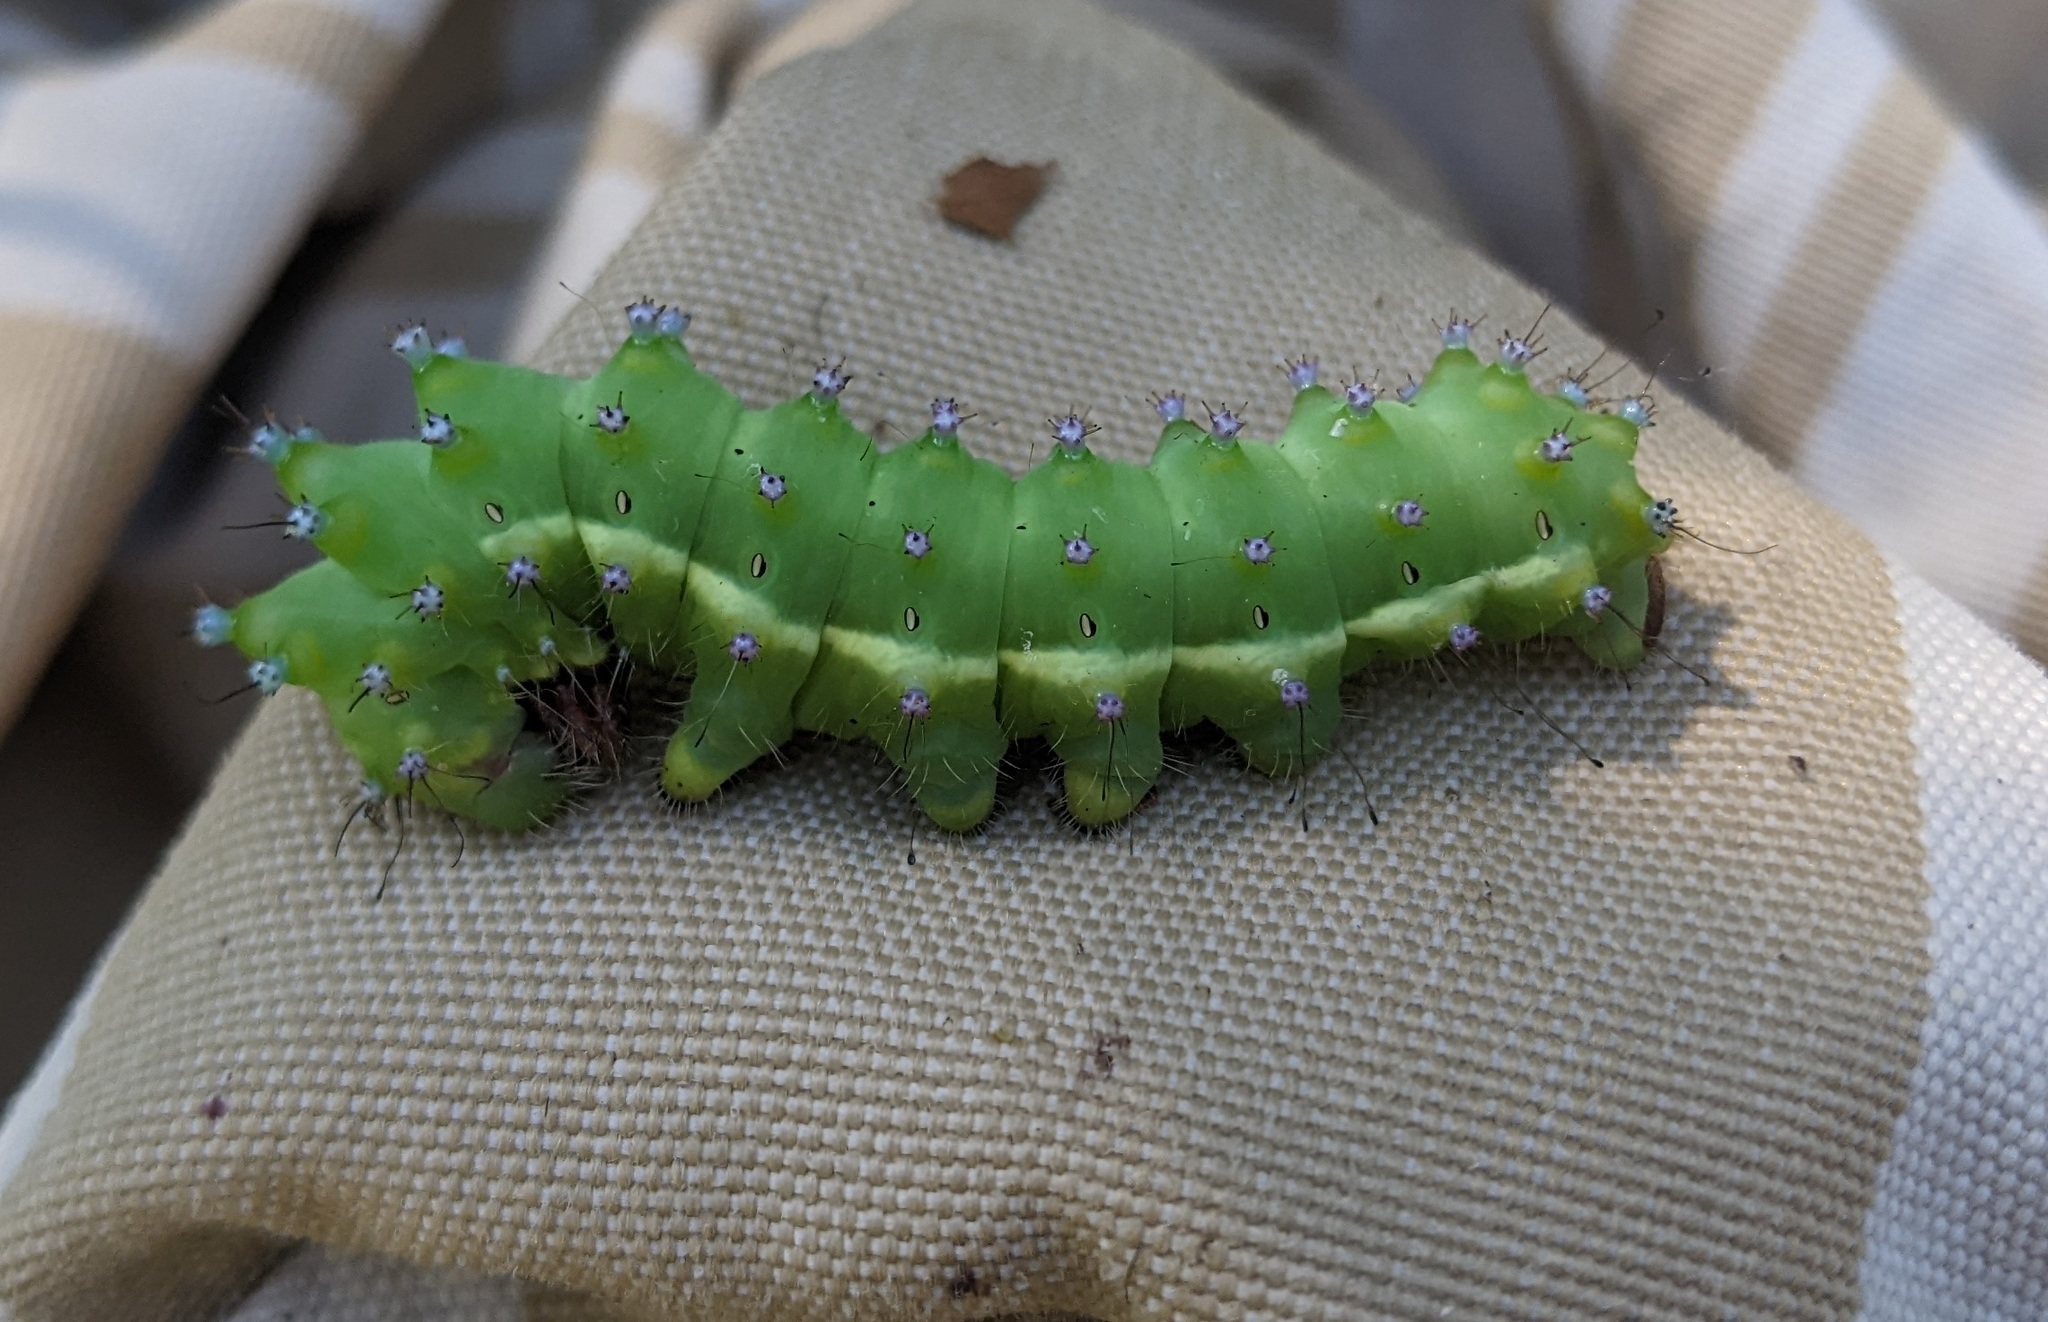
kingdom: Animalia
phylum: Arthropoda
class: Insecta
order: Lepidoptera
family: Saturniidae
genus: Saturnia
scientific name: Saturnia pyri
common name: Great peacock moth
